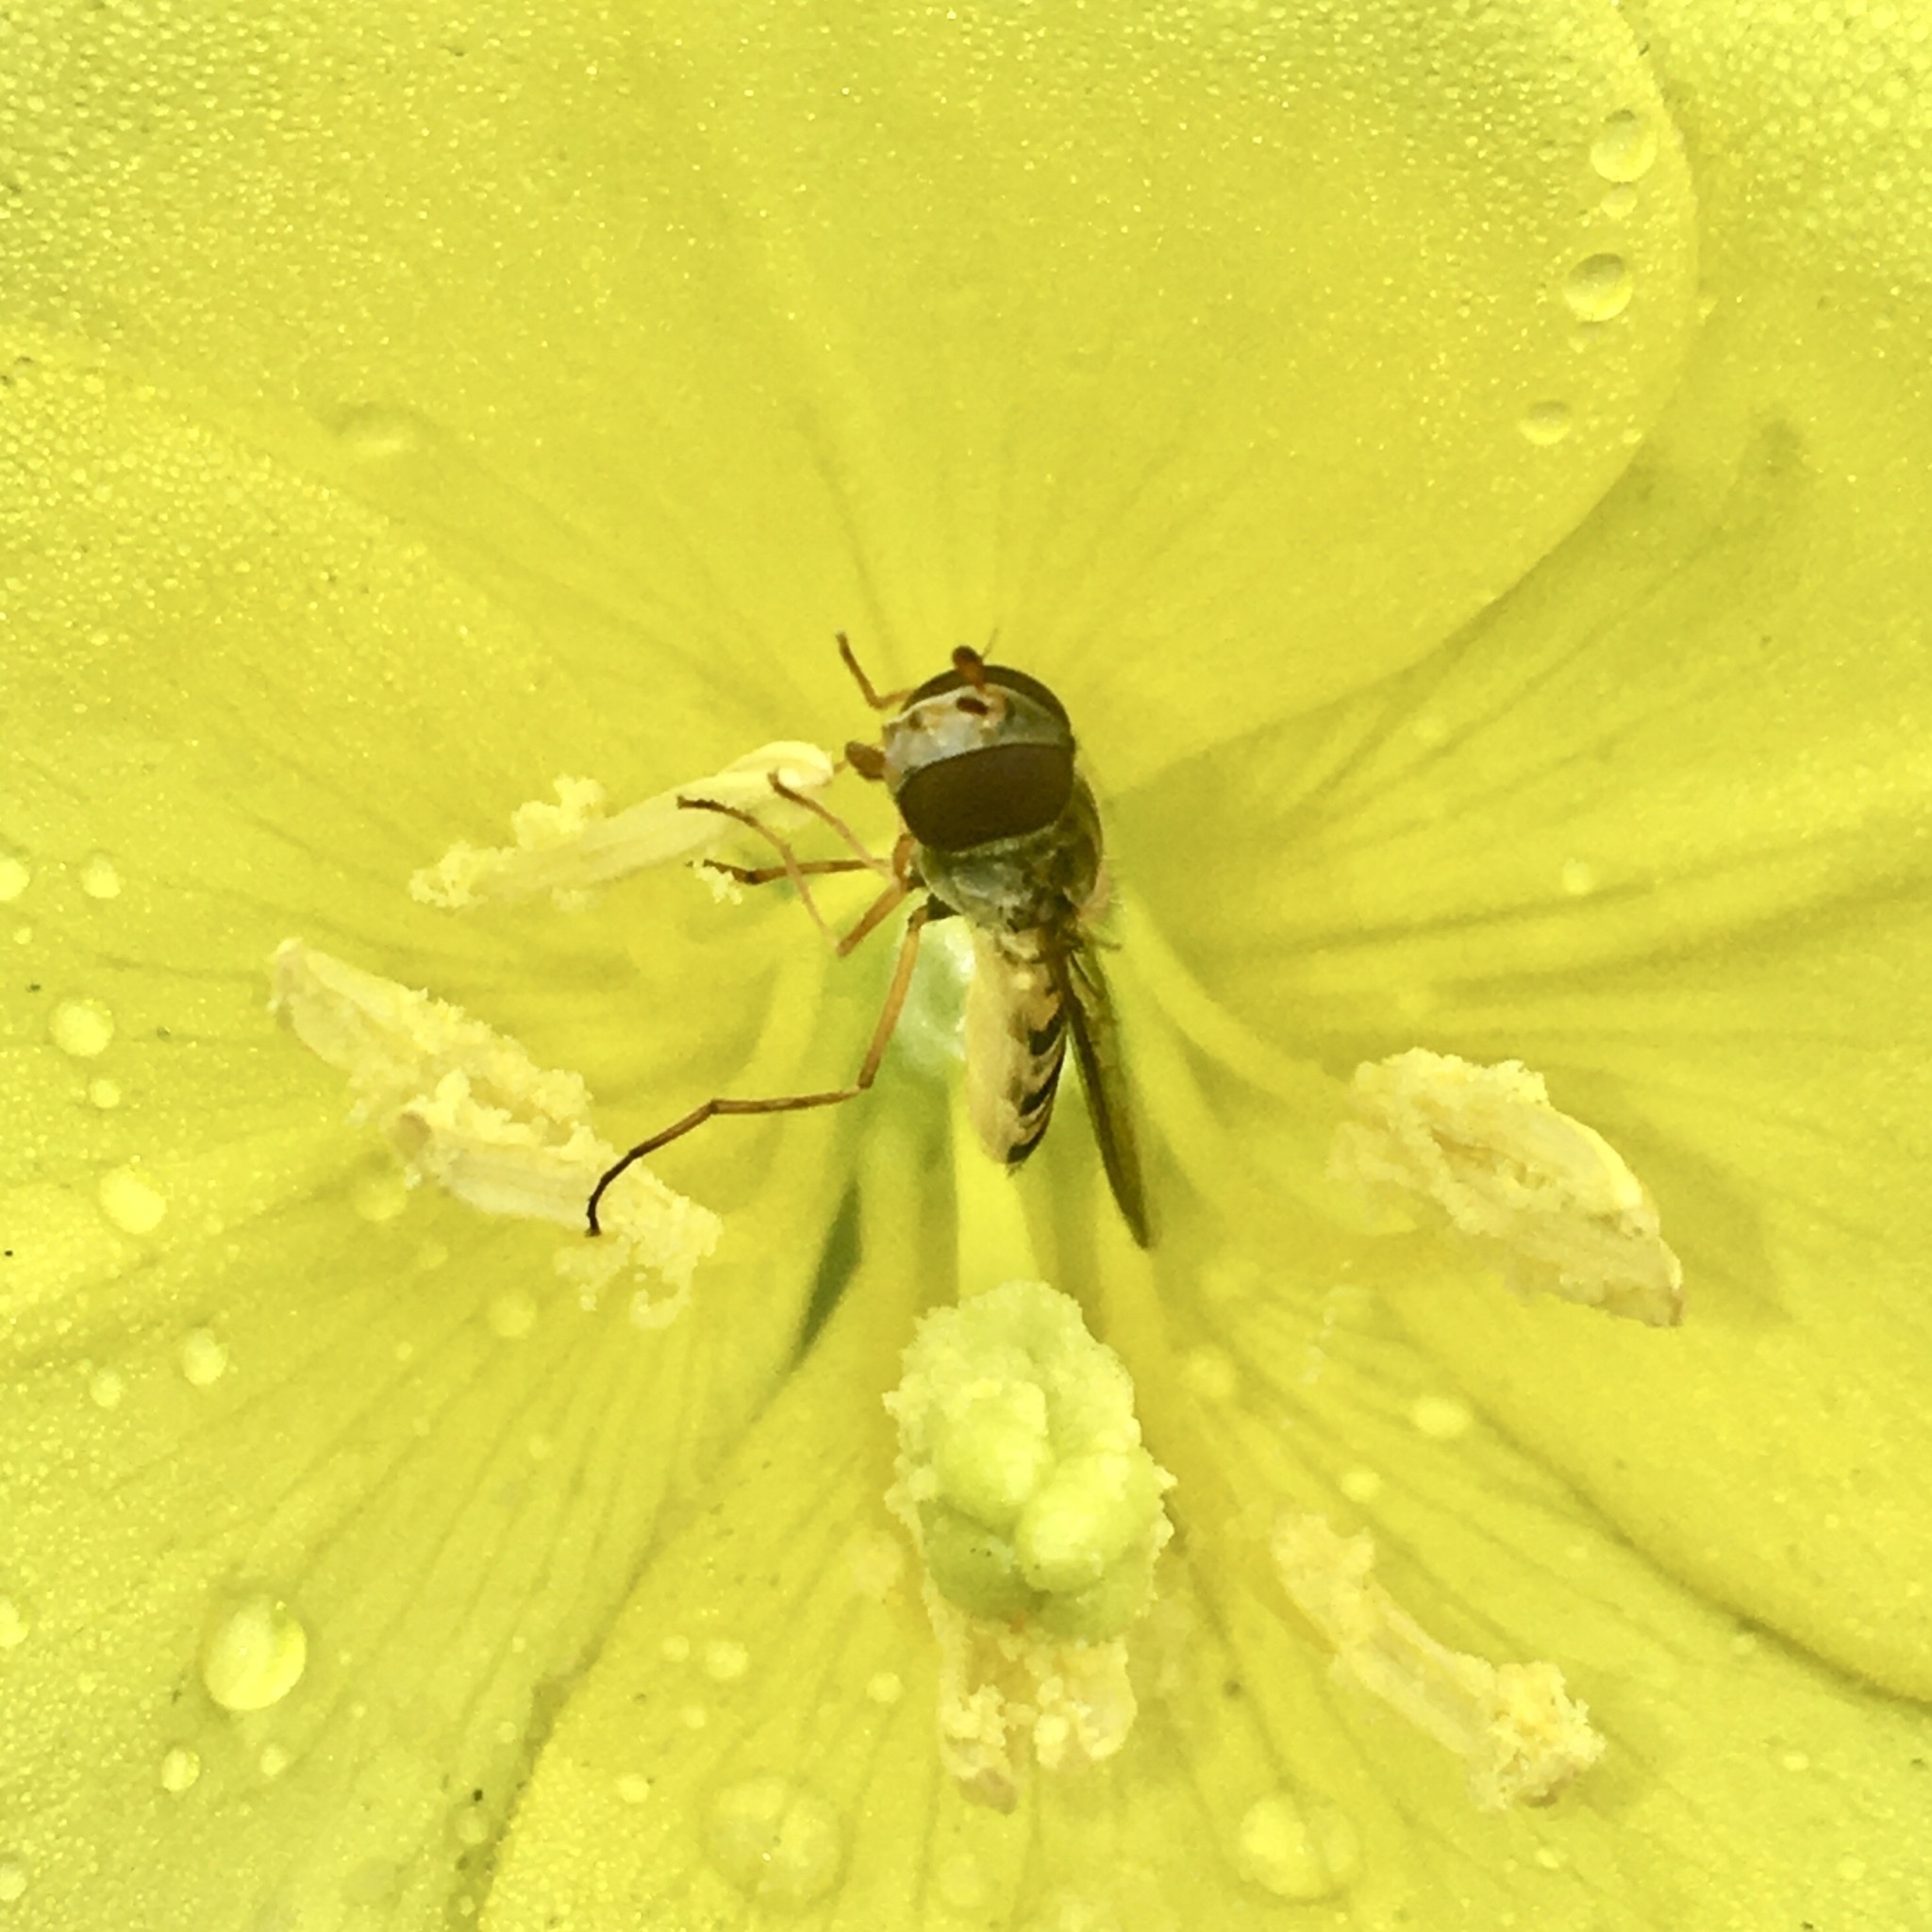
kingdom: Animalia
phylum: Arthropoda
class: Insecta
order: Diptera
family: Syrphidae
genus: Episyrphus
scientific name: Episyrphus balteatus
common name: Marmalade hoverfly
